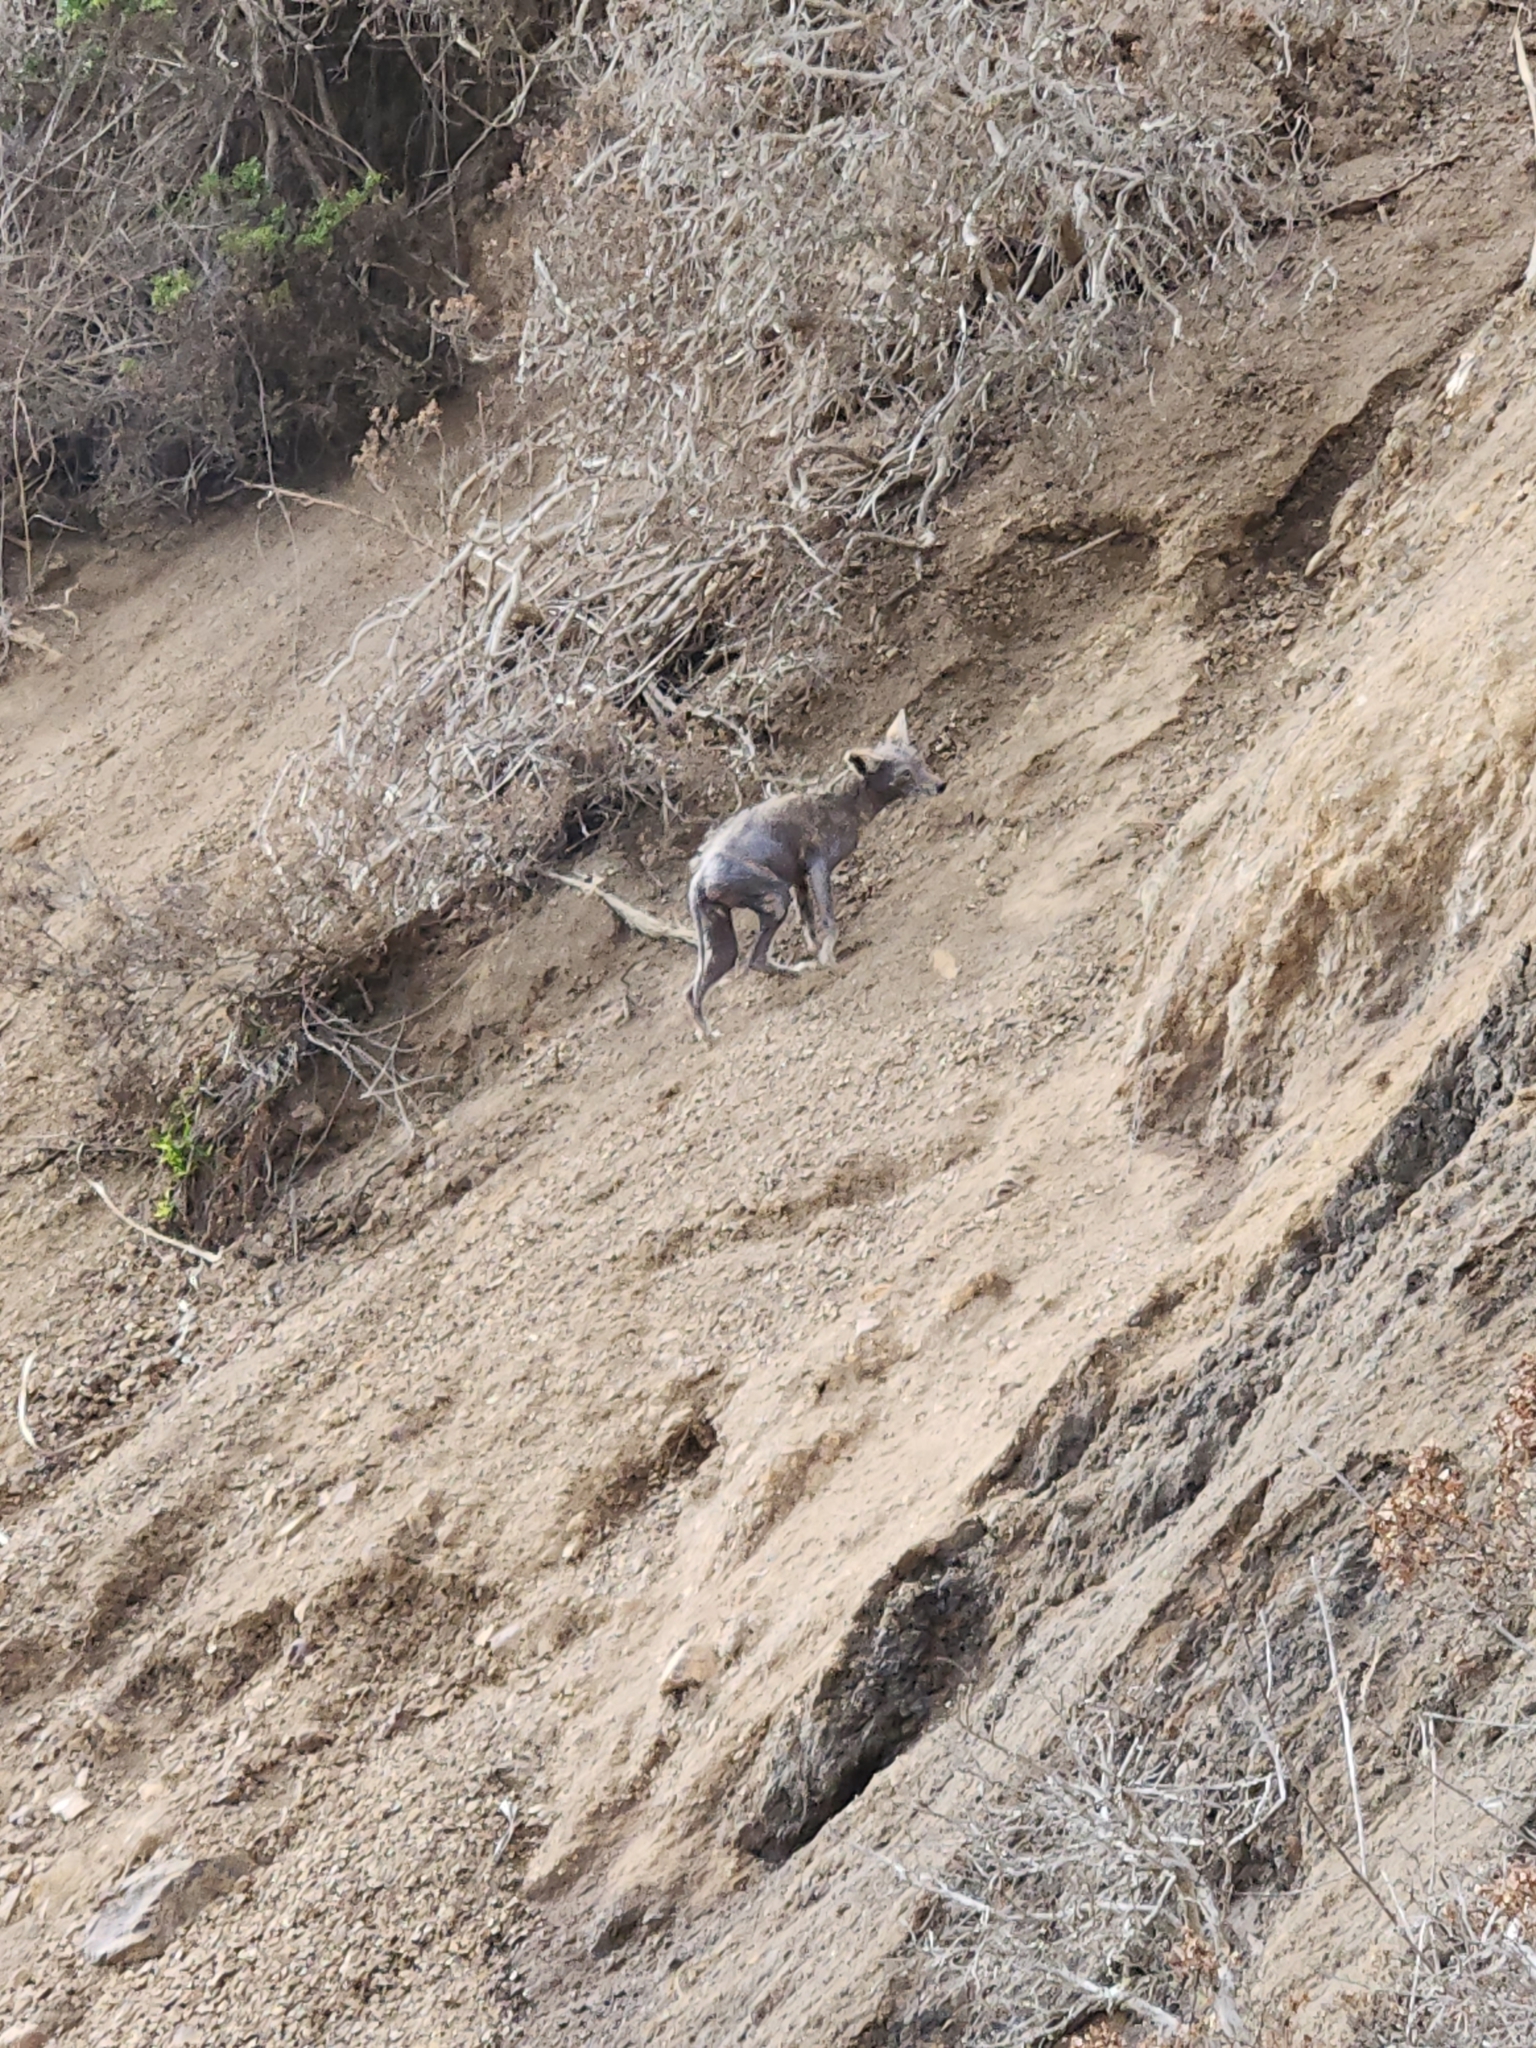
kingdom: Animalia
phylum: Chordata
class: Mammalia
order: Carnivora
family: Canidae
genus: Canis
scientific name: Canis latrans
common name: Coyote
